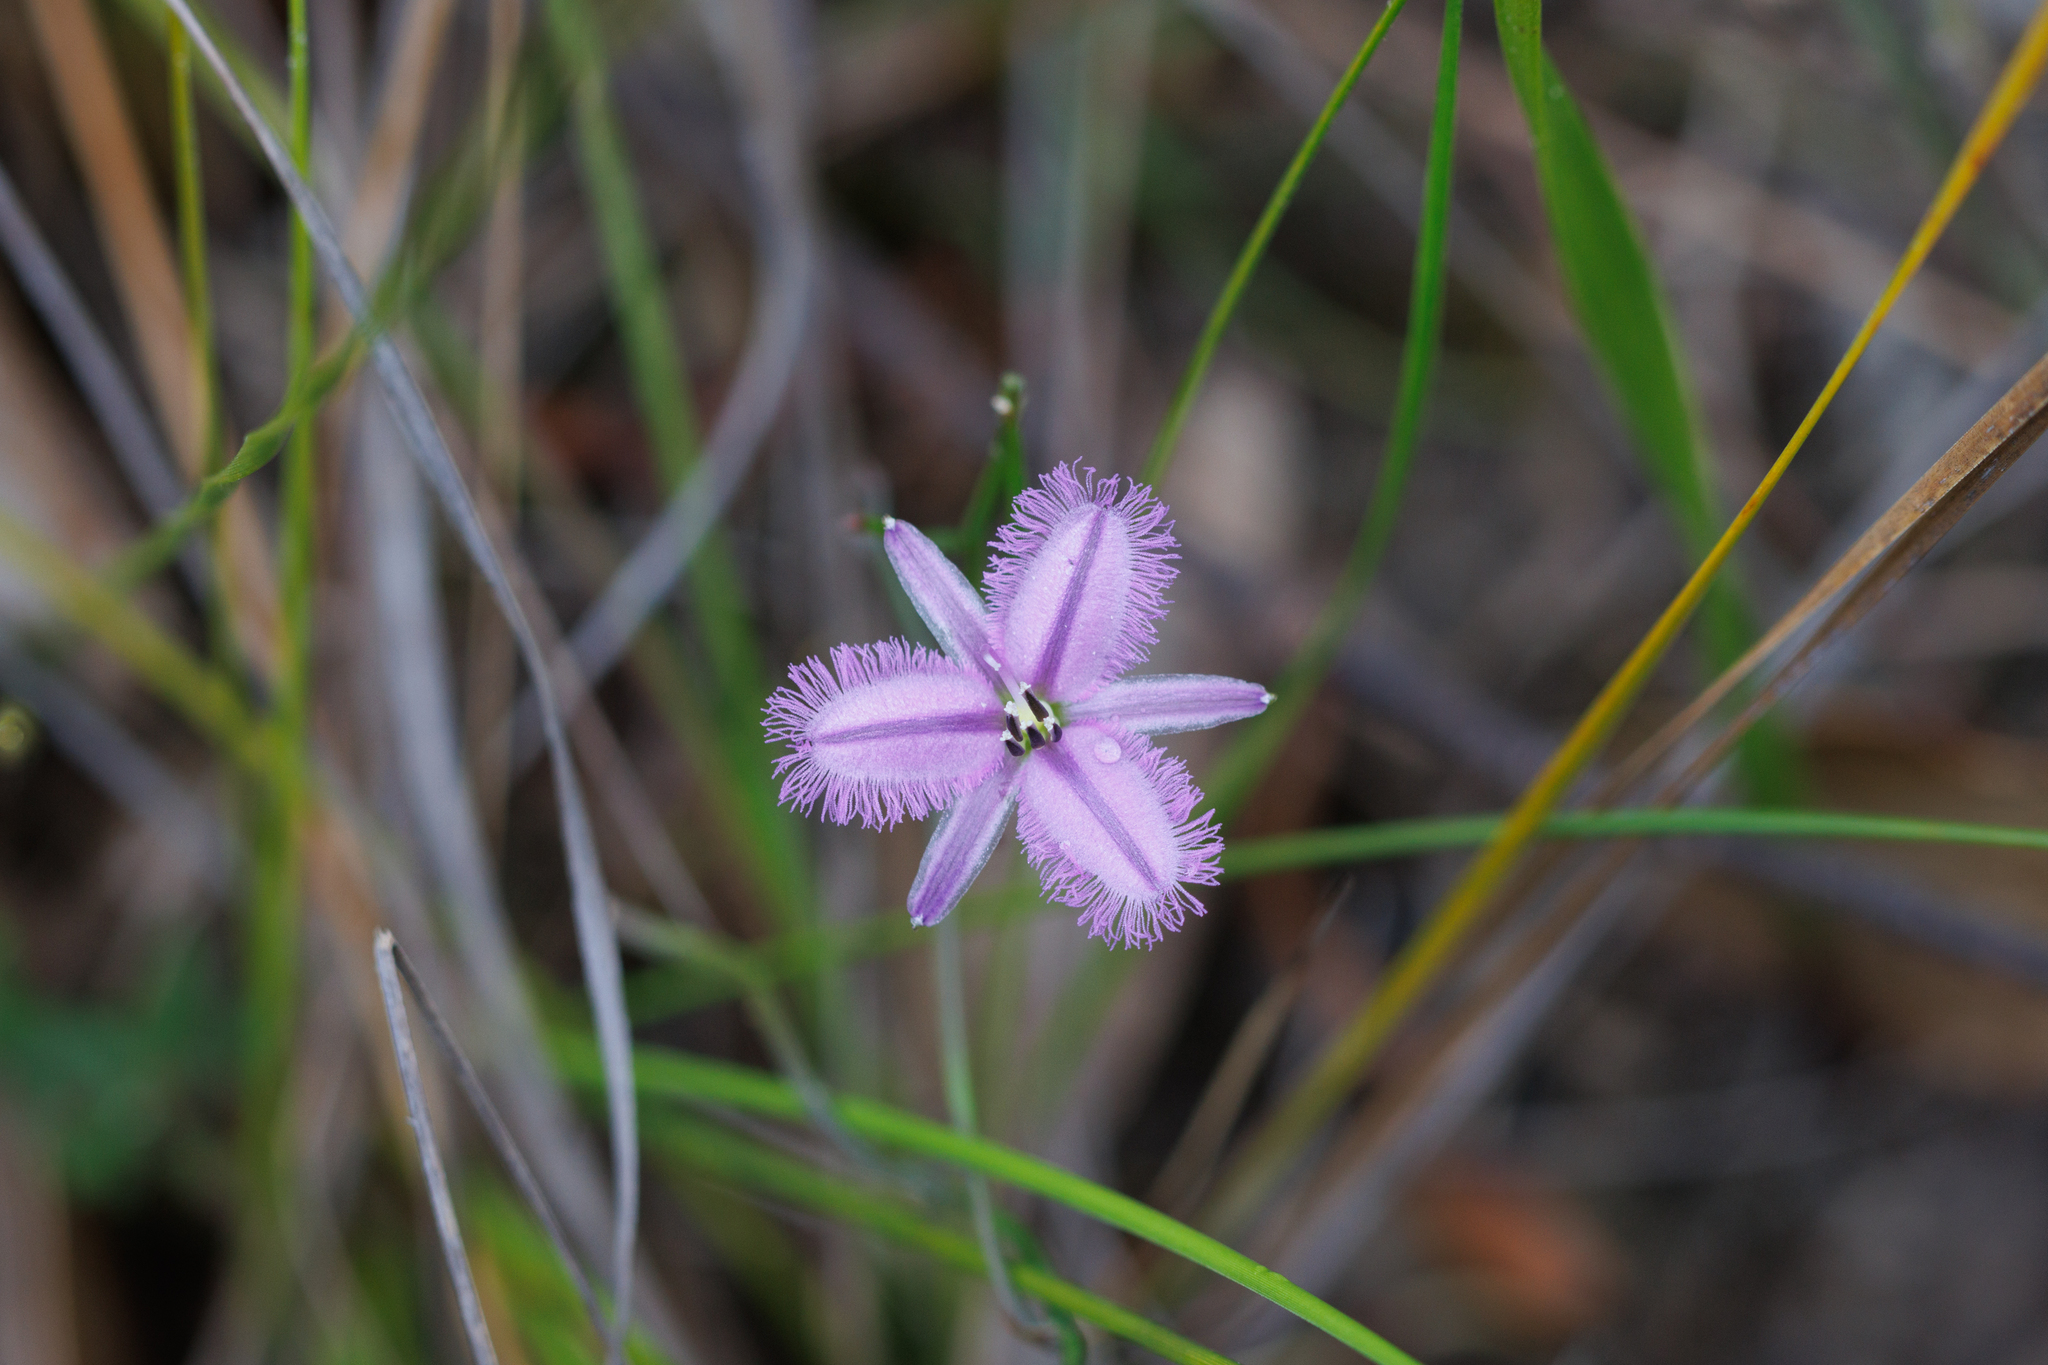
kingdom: Plantae
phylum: Tracheophyta
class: Liliopsida
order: Asparagales
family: Asparagaceae
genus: Thysanotus
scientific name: Thysanotus patersonii
